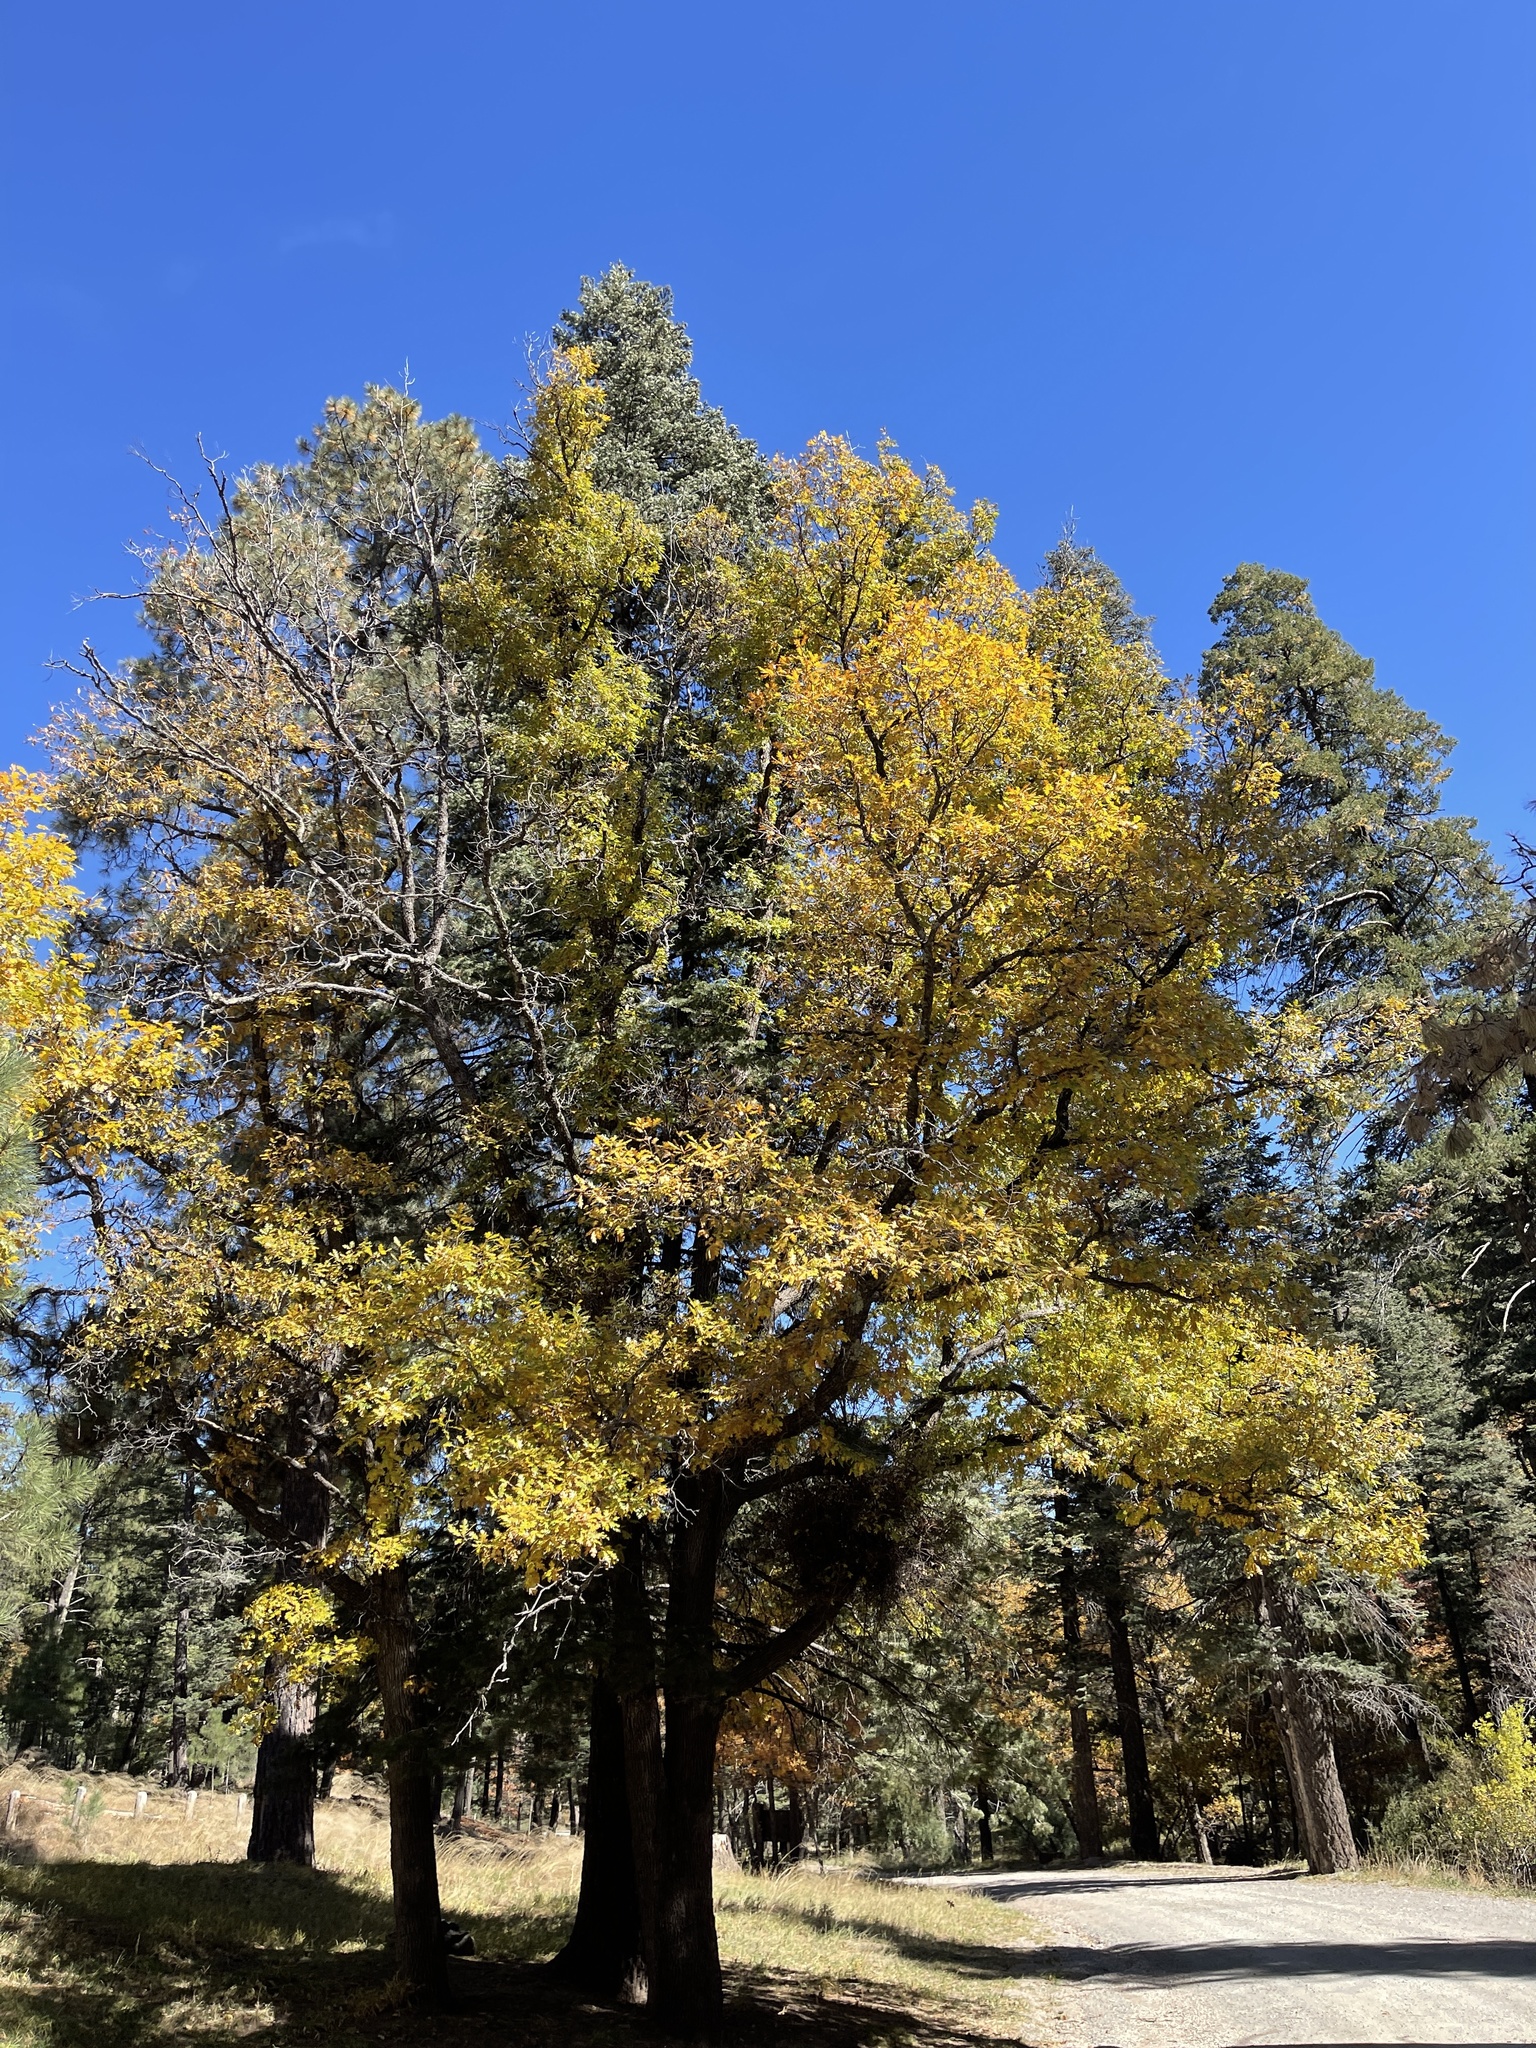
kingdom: Plantae
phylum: Tracheophyta
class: Magnoliopsida
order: Fagales
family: Fagaceae
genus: Quercus
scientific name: Quercus gambelii
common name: Gambel oak
